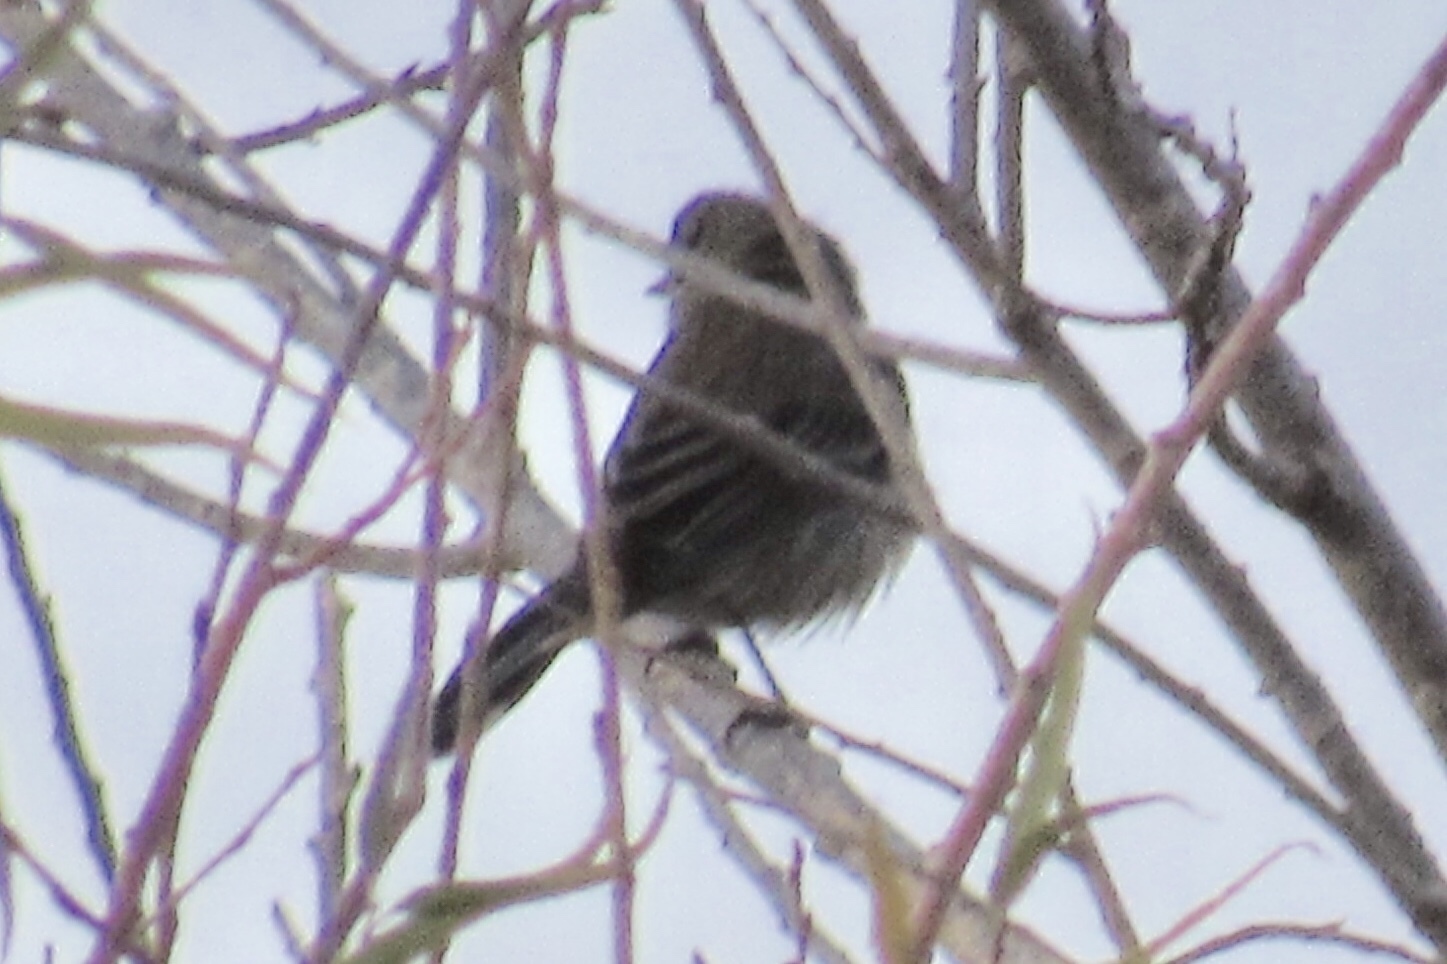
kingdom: Animalia
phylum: Chordata
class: Aves
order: Passeriformes
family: Parulidae
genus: Setophaga
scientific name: Setophaga coronata
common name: Myrtle warbler
